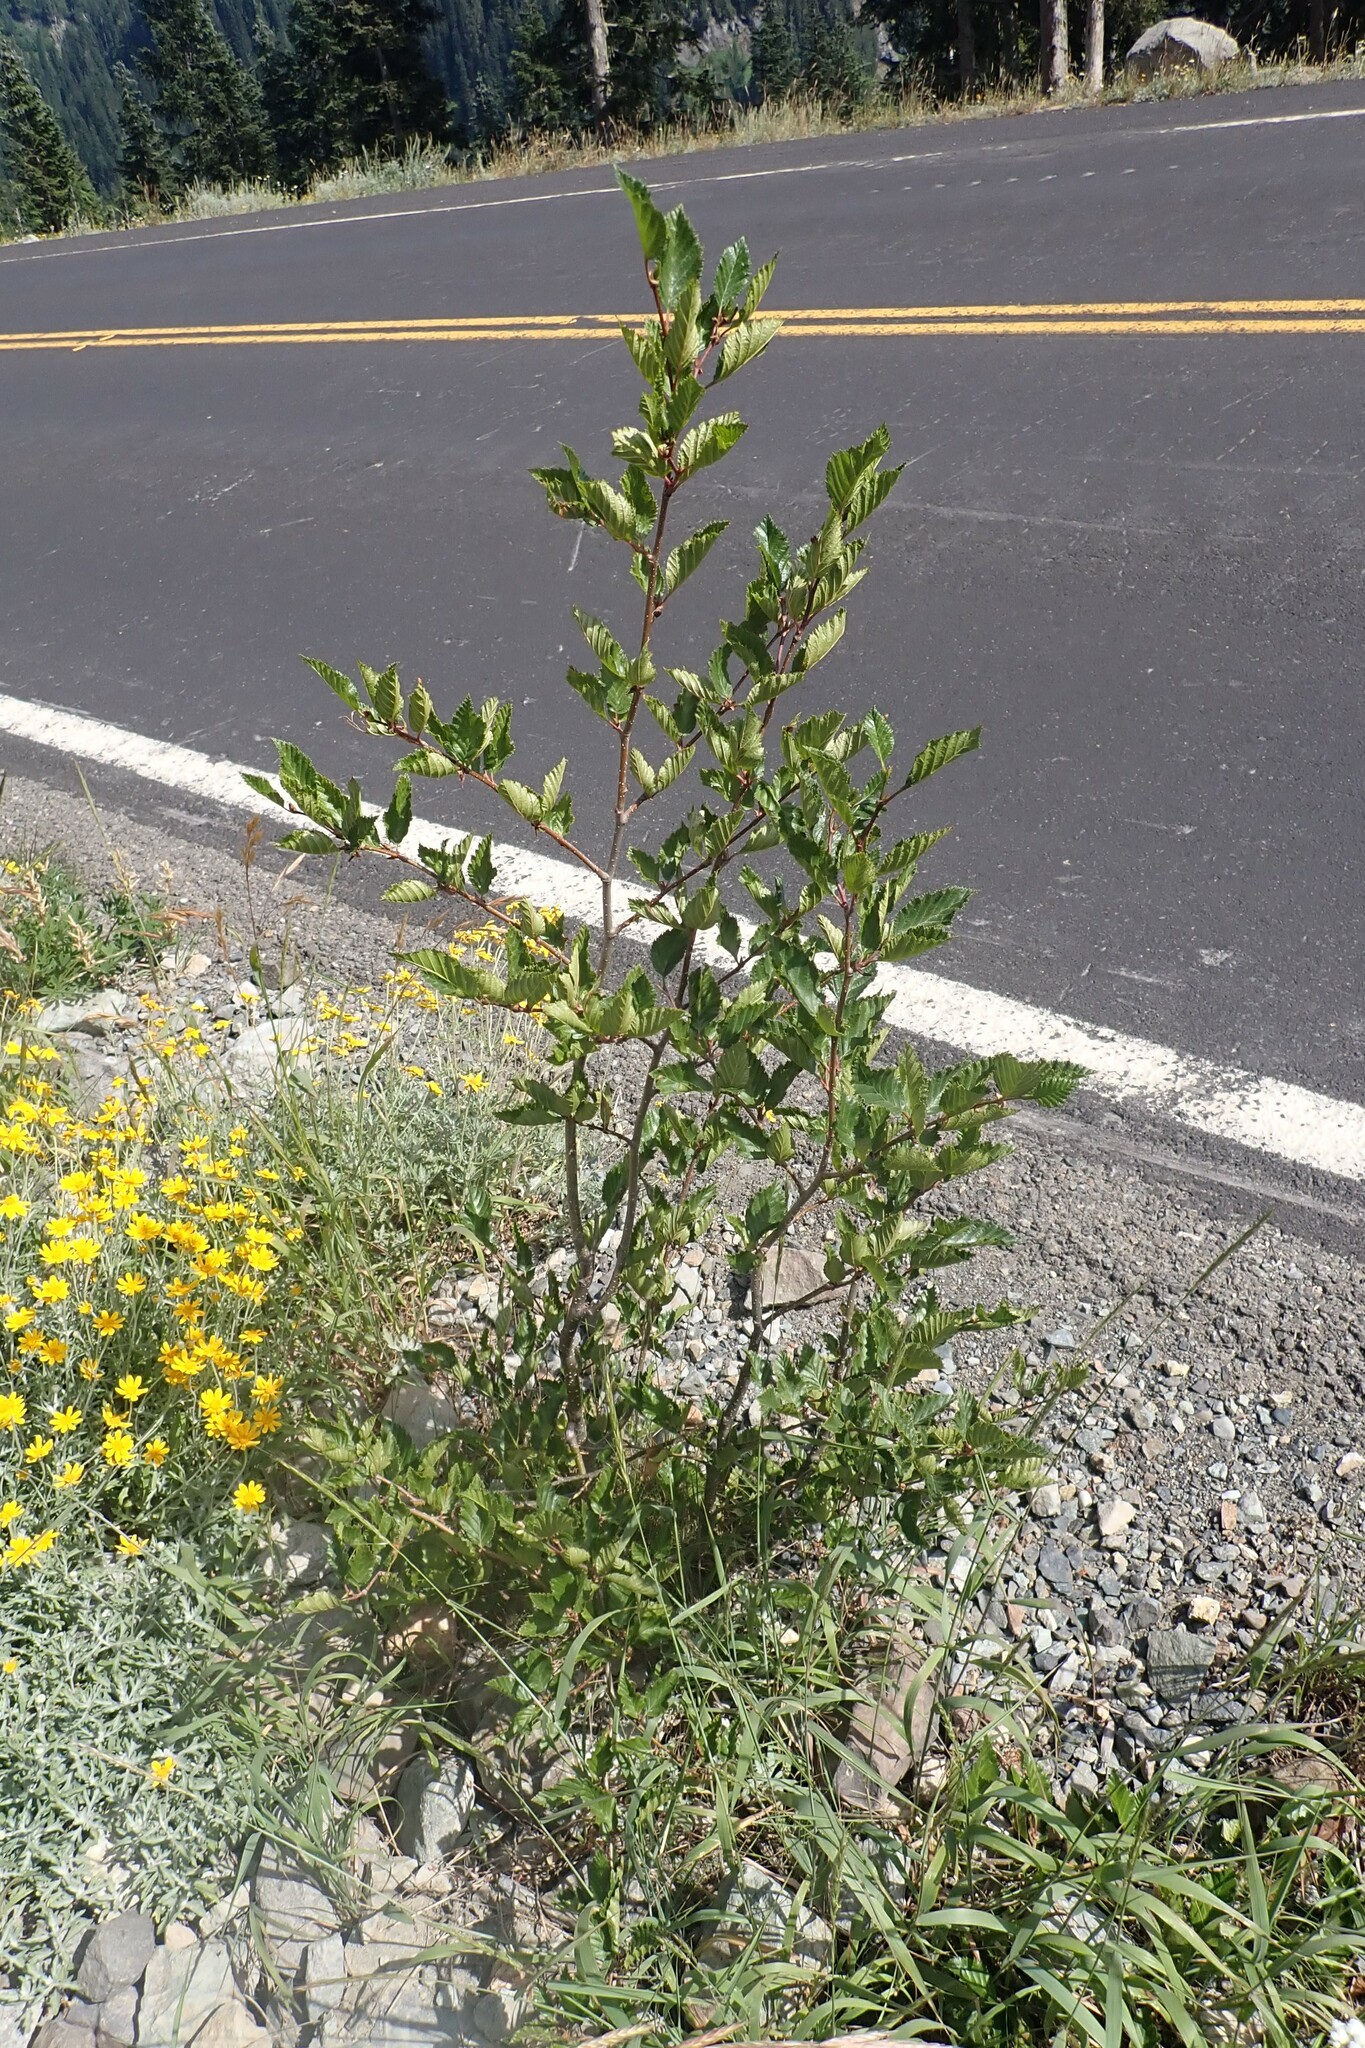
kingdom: Plantae
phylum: Tracheophyta
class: Magnoliopsida
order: Fagales
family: Betulaceae
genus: Alnus
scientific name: Alnus alnobetula
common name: Green alder
